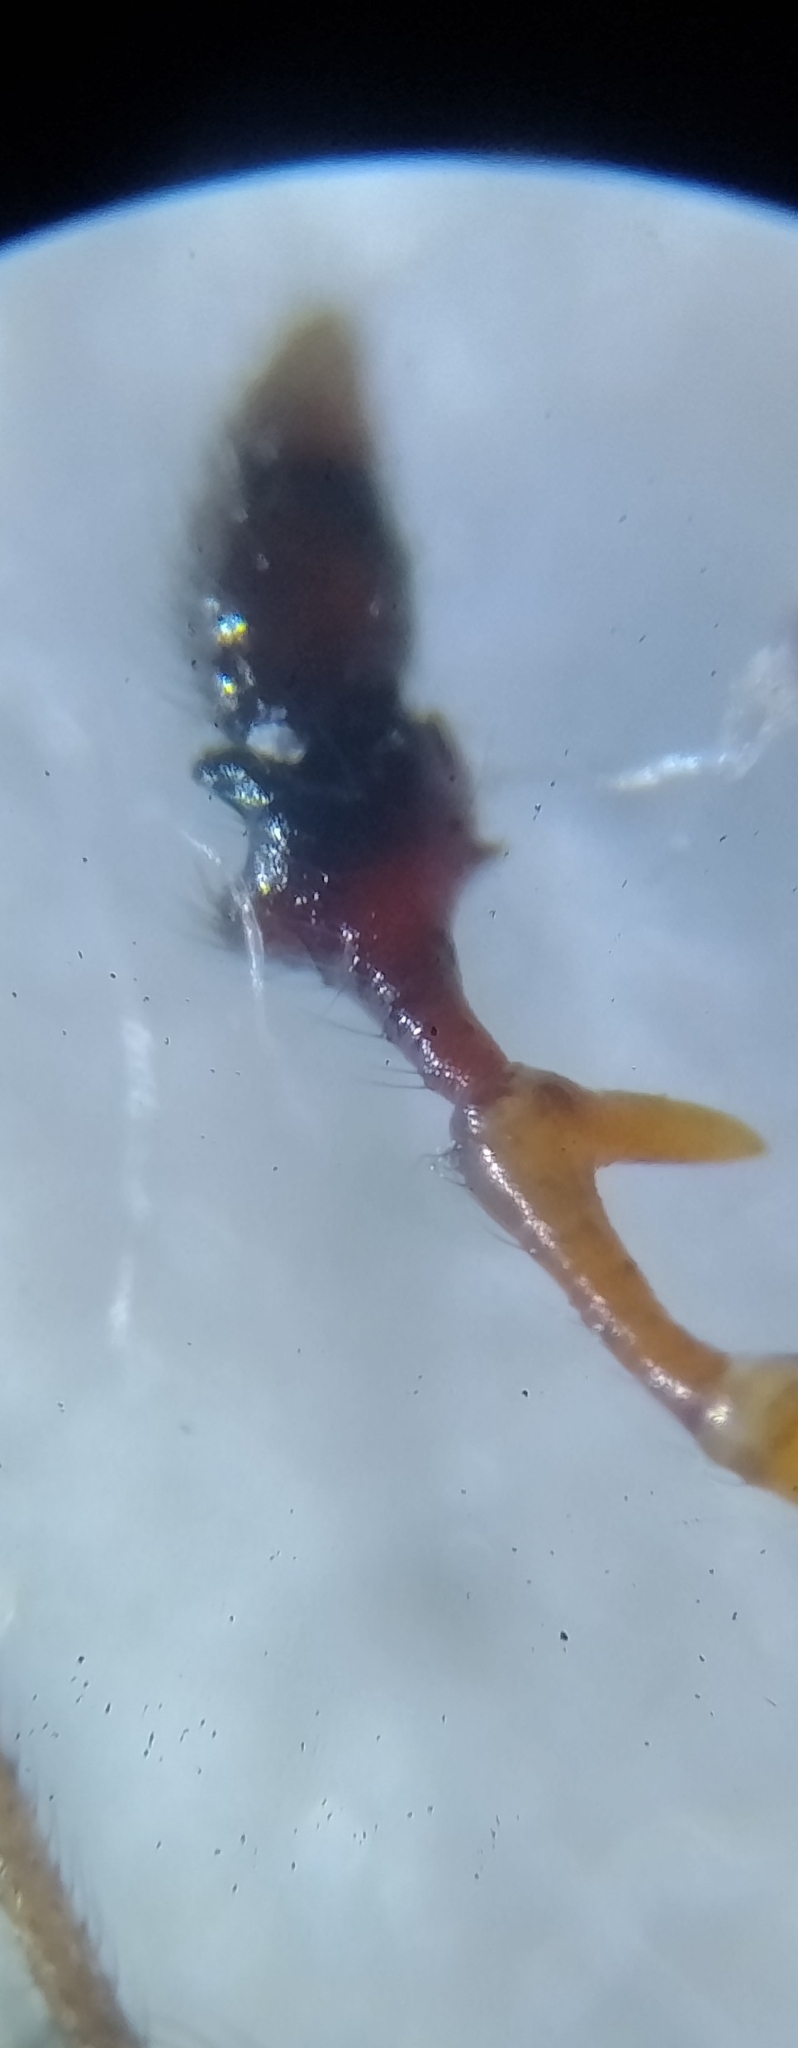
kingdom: Animalia
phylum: Arthropoda
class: Arachnida
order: Araneae
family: Linyphiidae
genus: Erigone
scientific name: Erigone dentipalpis
